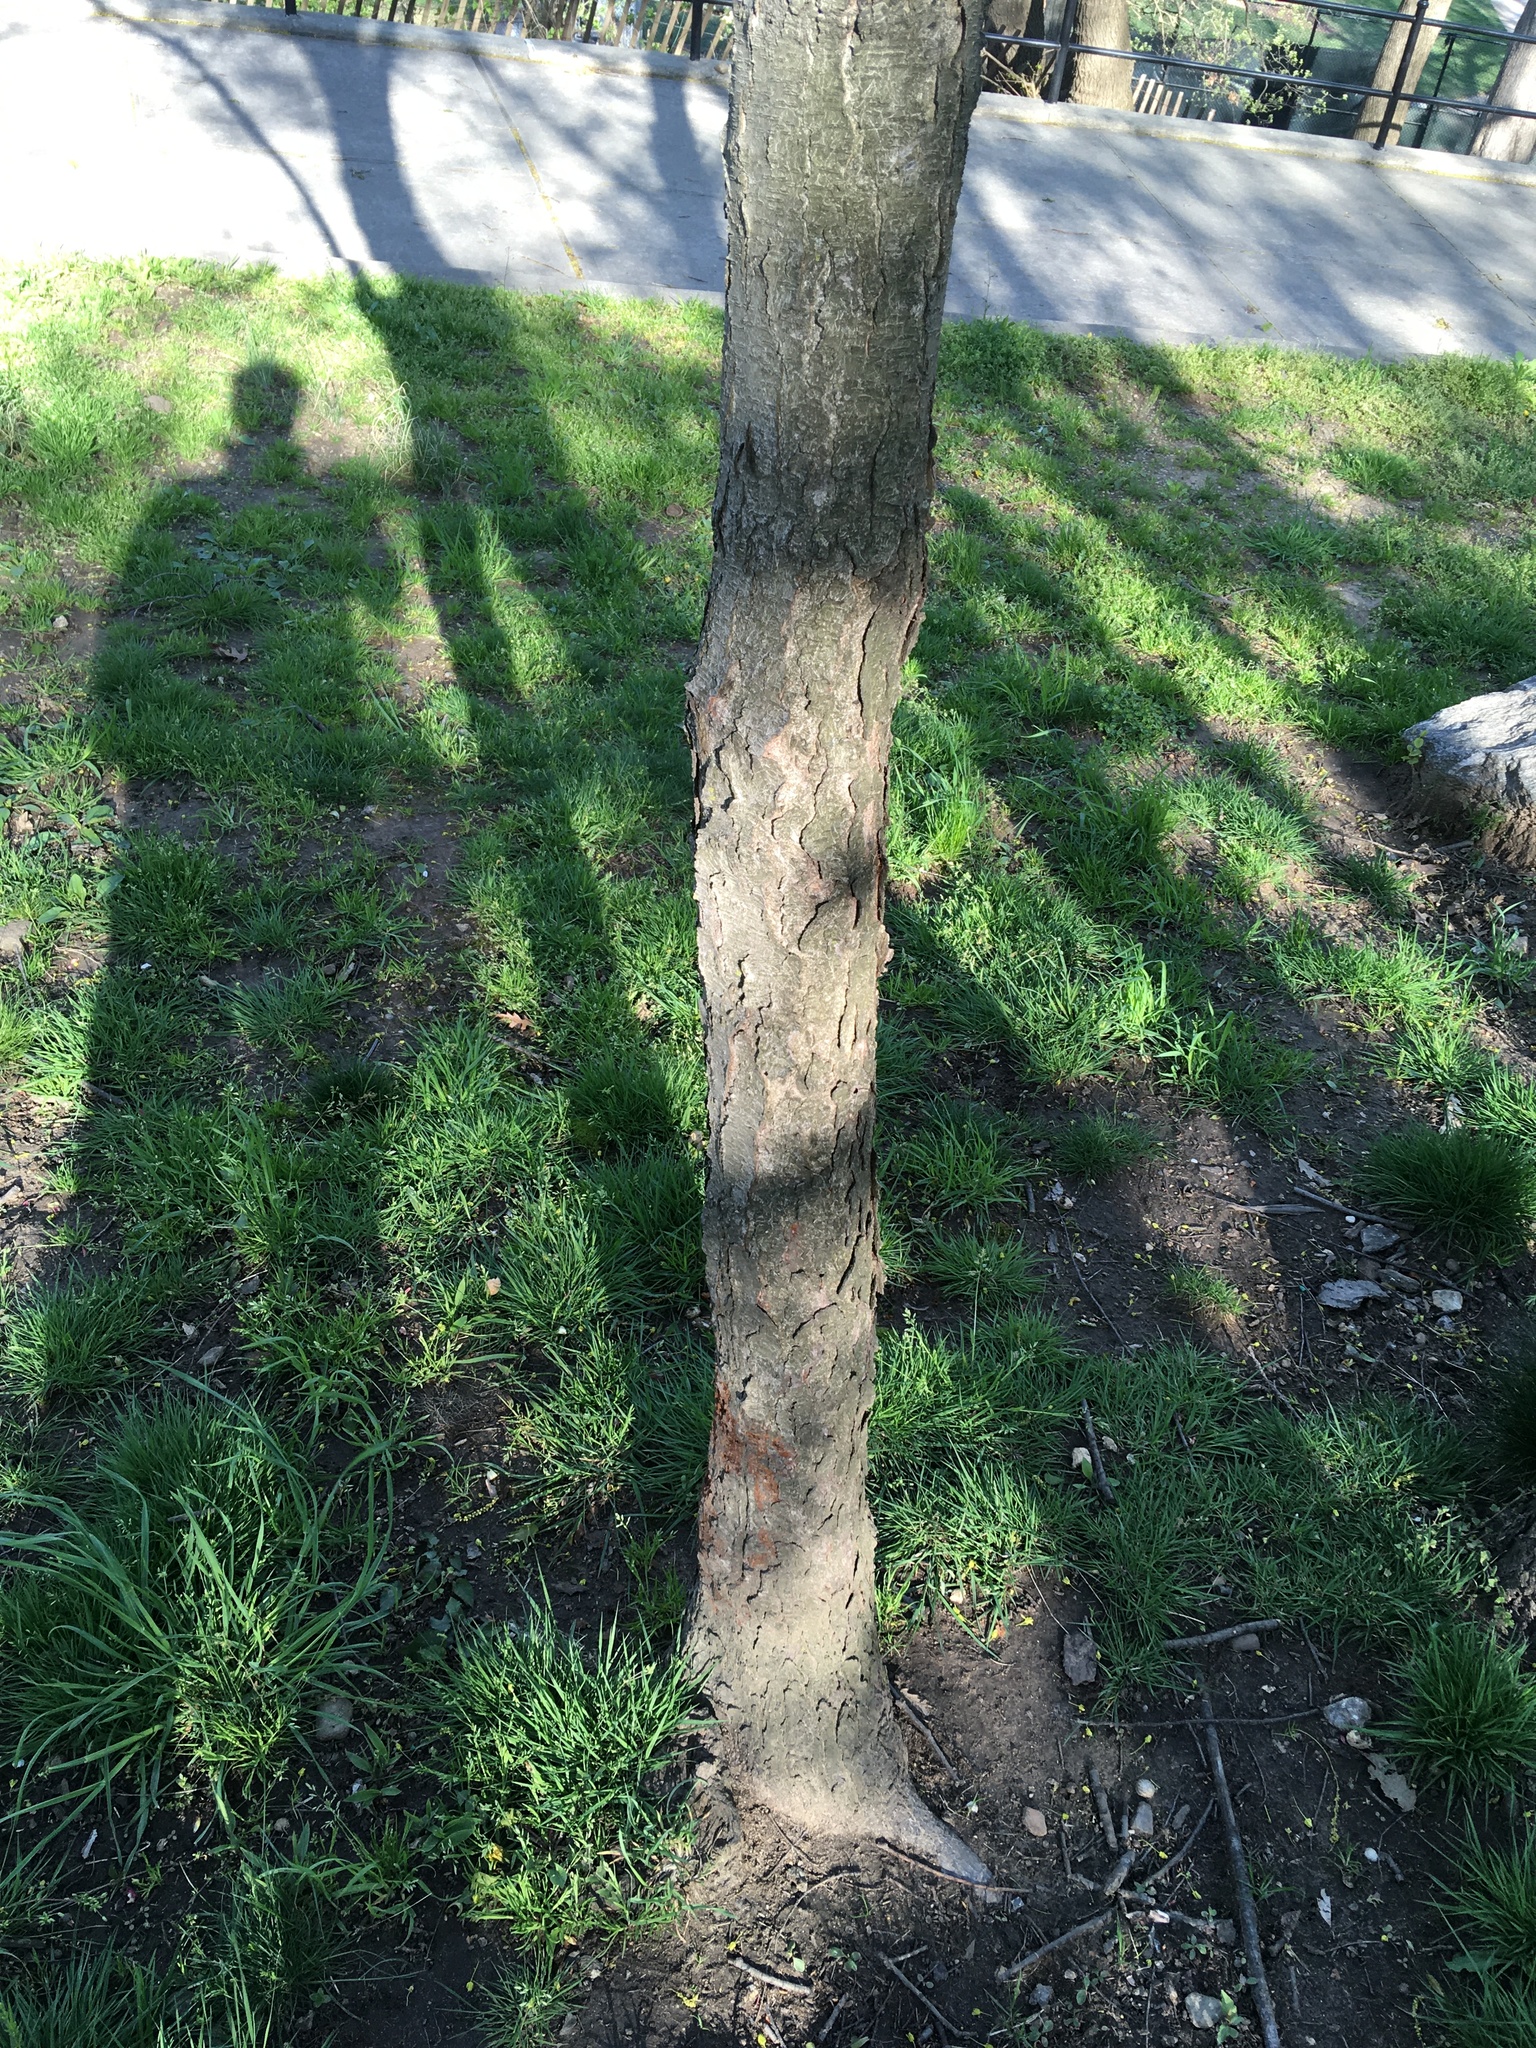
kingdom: Plantae
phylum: Tracheophyta
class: Magnoliopsida
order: Rosales
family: Rosaceae
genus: Prunus
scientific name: Prunus serotina
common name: Black cherry
